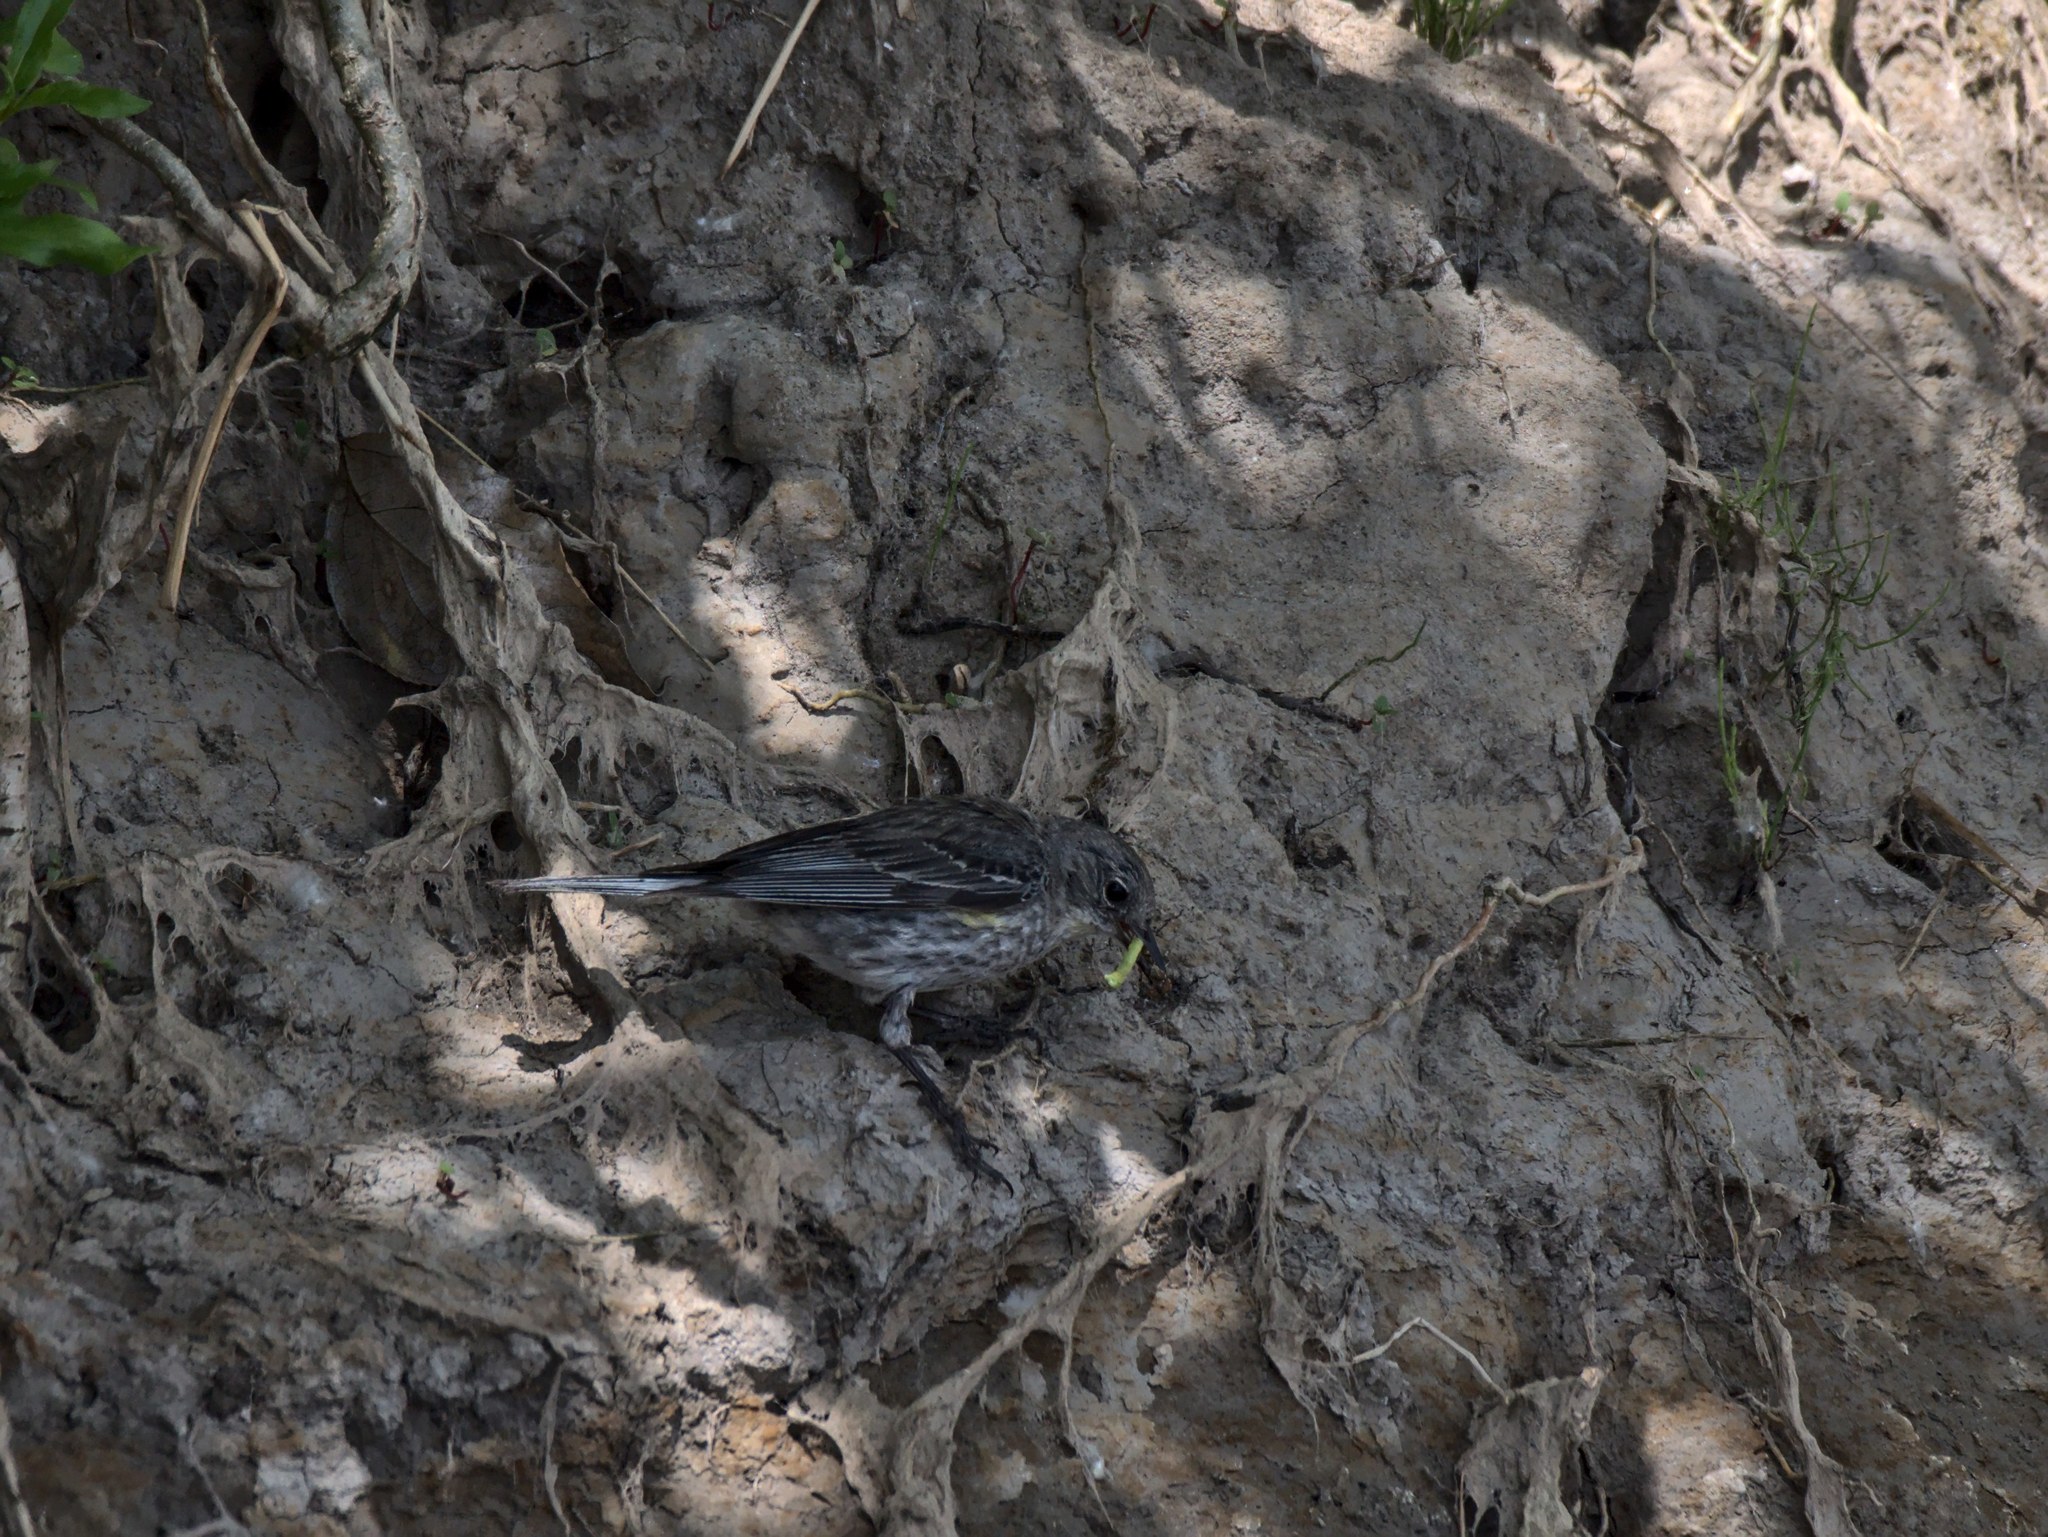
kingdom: Animalia
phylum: Chordata
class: Aves
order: Passeriformes
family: Parulidae
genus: Setophaga
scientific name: Setophaga coronata
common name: Myrtle warbler
